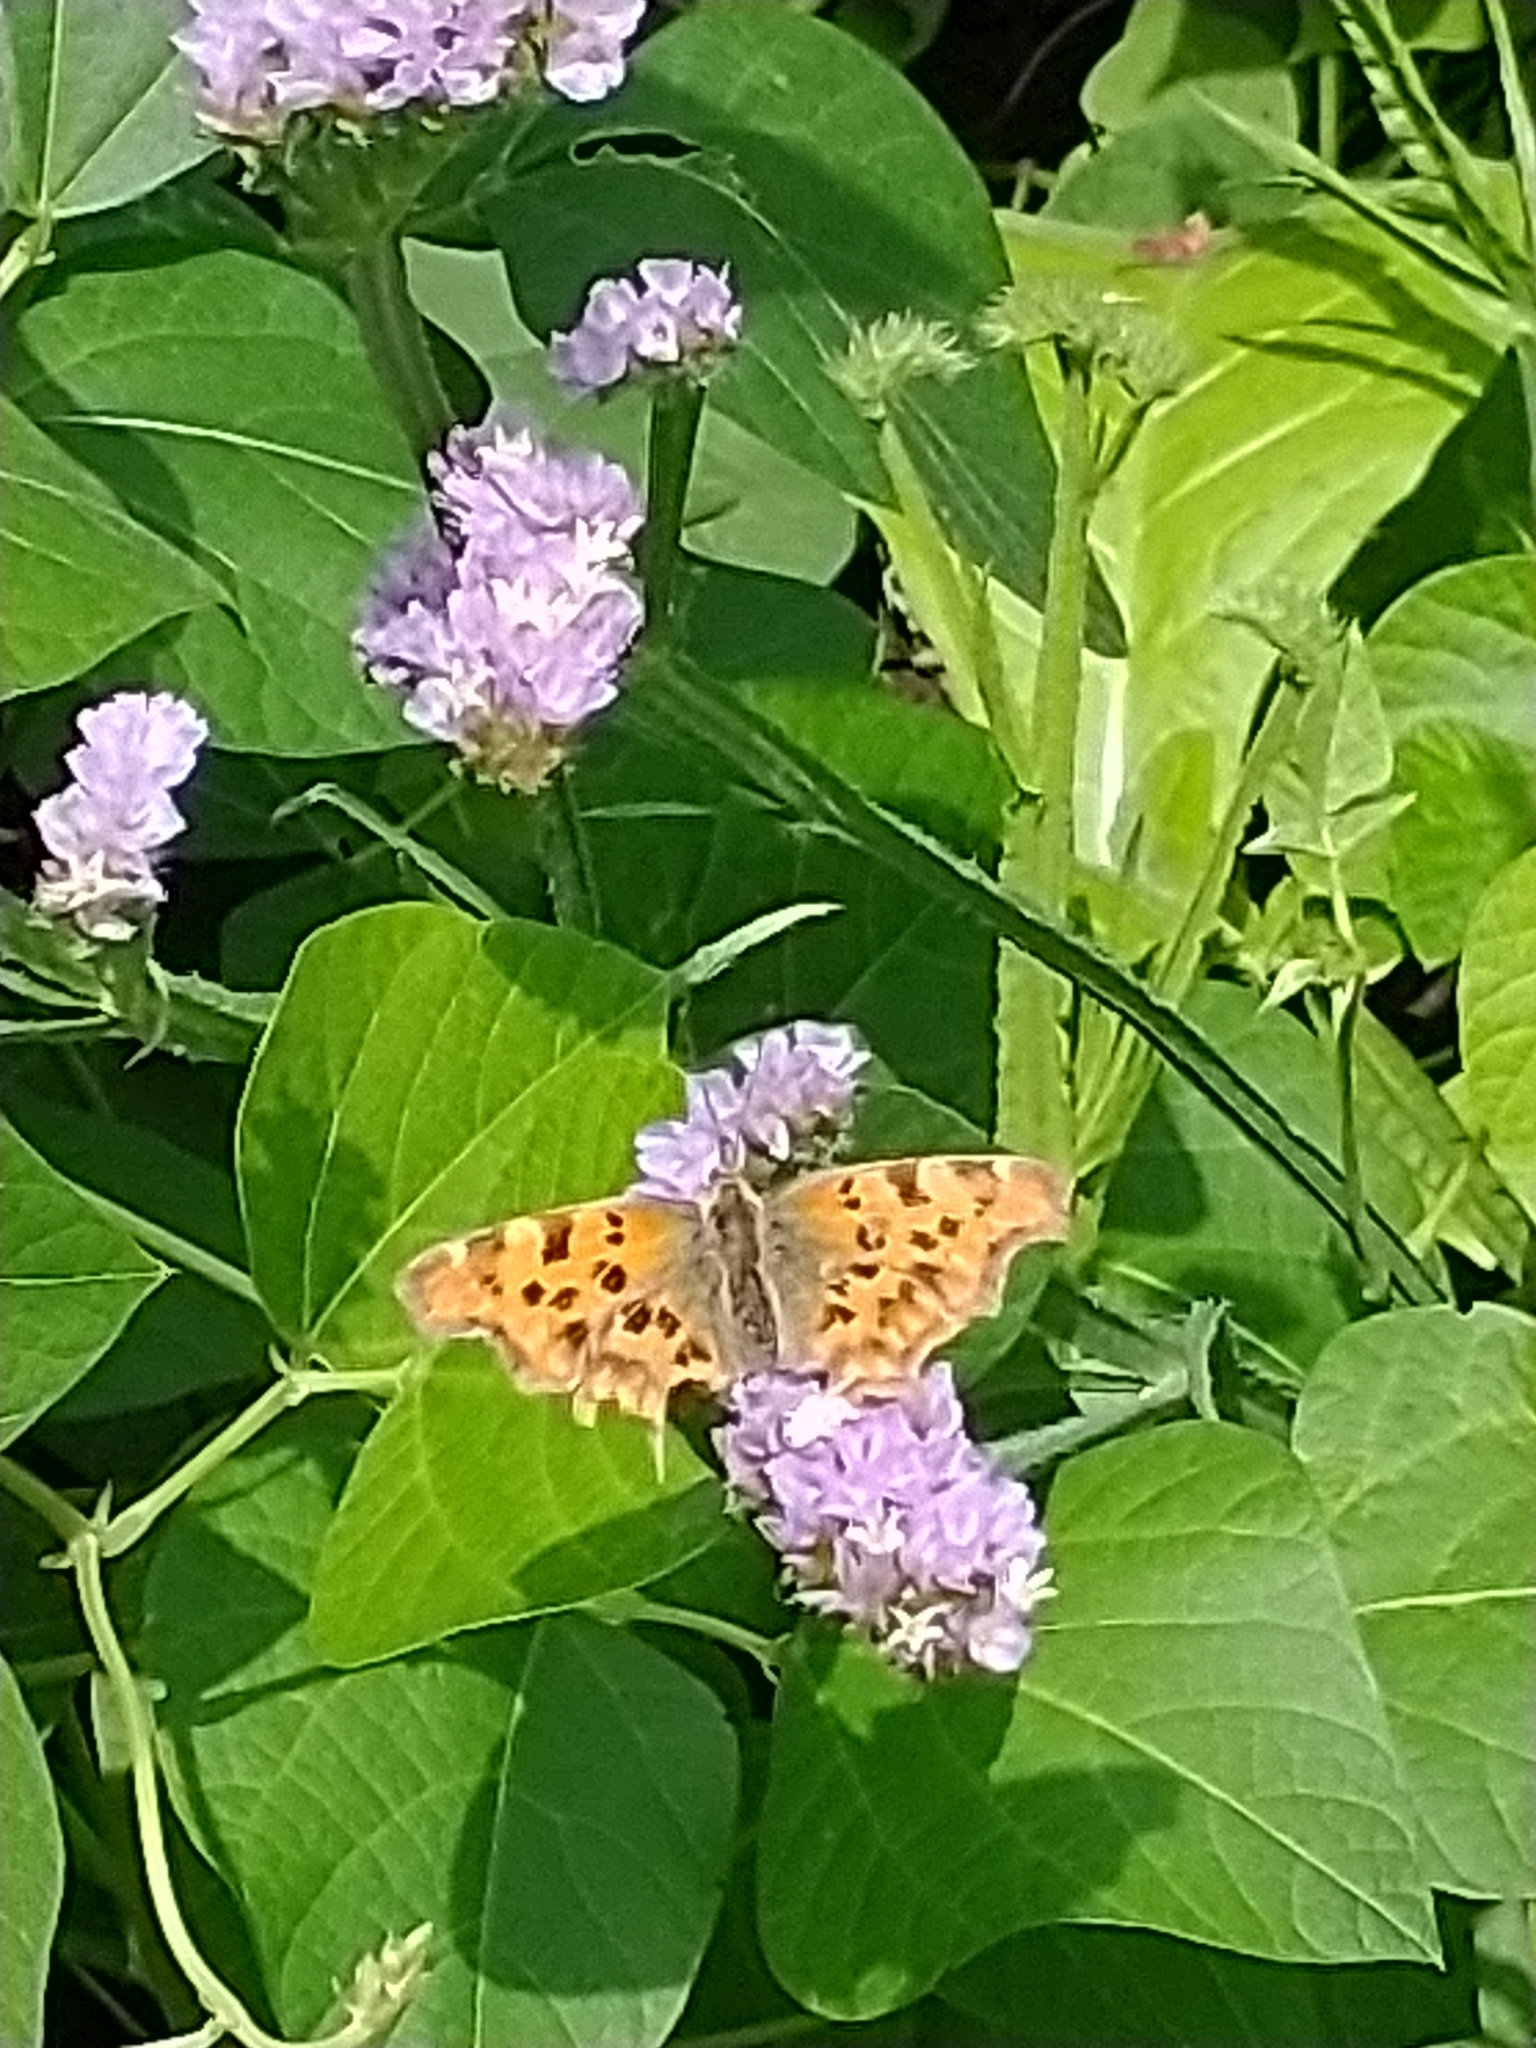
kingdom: Animalia
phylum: Arthropoda
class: Insecta
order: Lepidoptera
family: Nymphalidae
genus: Polygonia
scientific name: Polygonia c-album
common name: Comma
